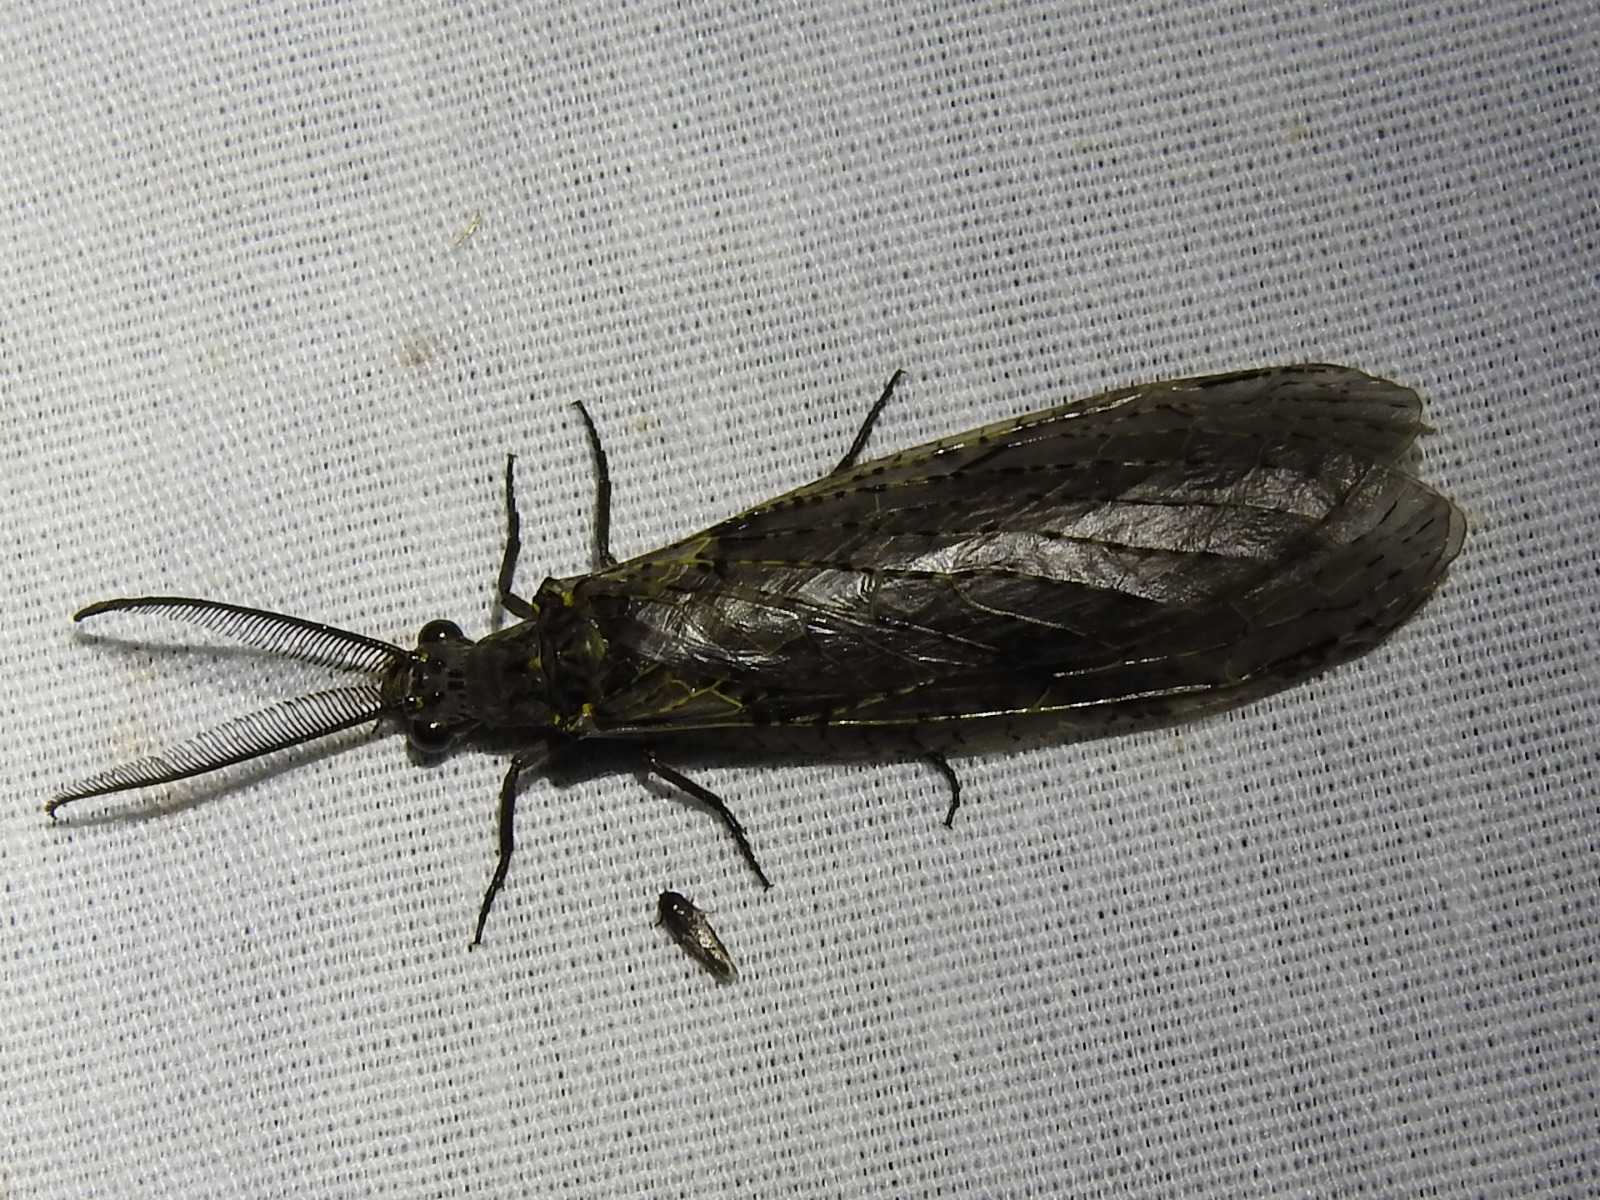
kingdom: Animalia
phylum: Arthropoda
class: Insecta
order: Megaloptera
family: Corydalidae
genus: Chauliodes
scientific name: Chauliodes rastricornis
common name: Spring fishfly
